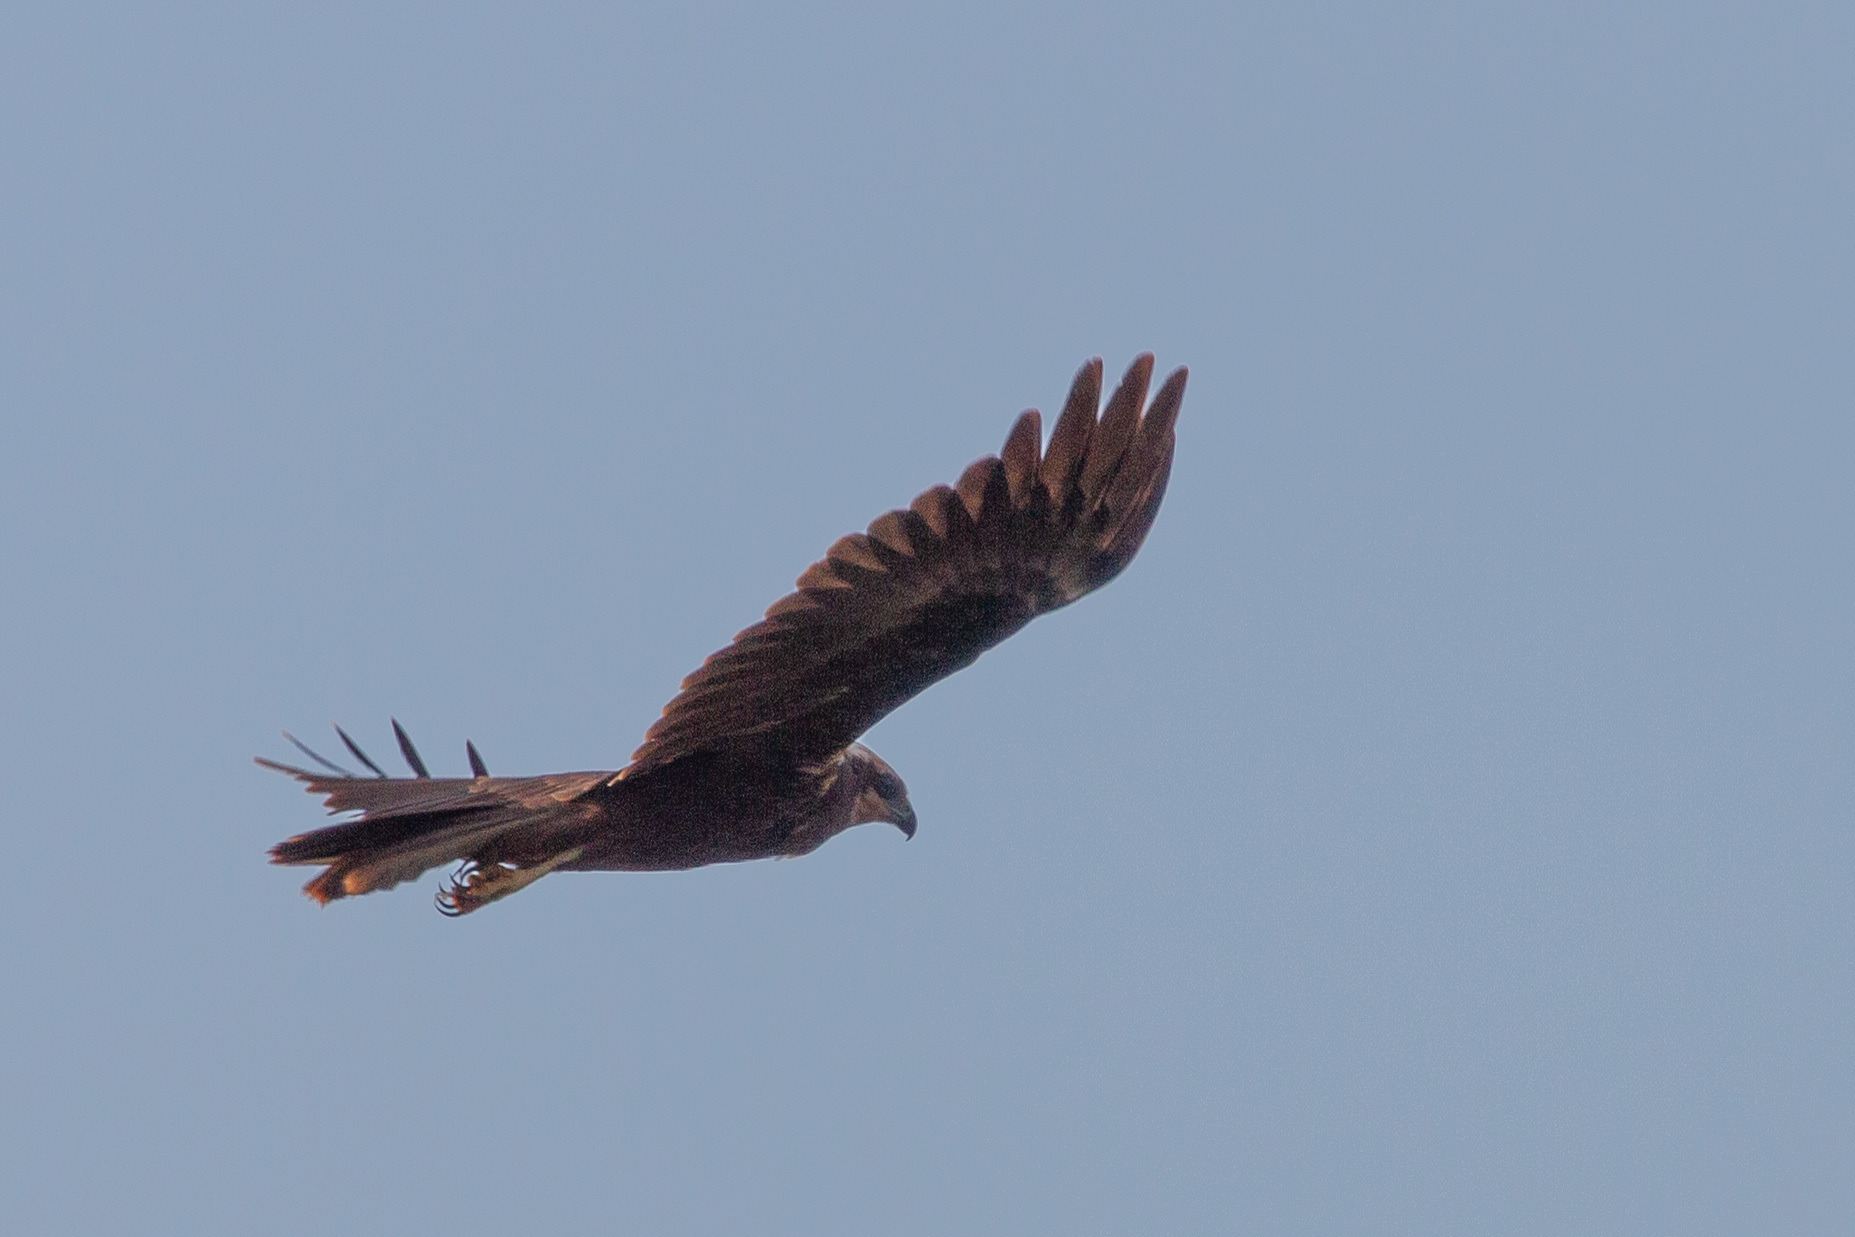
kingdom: Animalia
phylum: Chordata
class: Aves
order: Accipitriformes
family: Accipitridae
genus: Circus
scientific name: Circus aeruginosus
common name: Western marsh harrier
